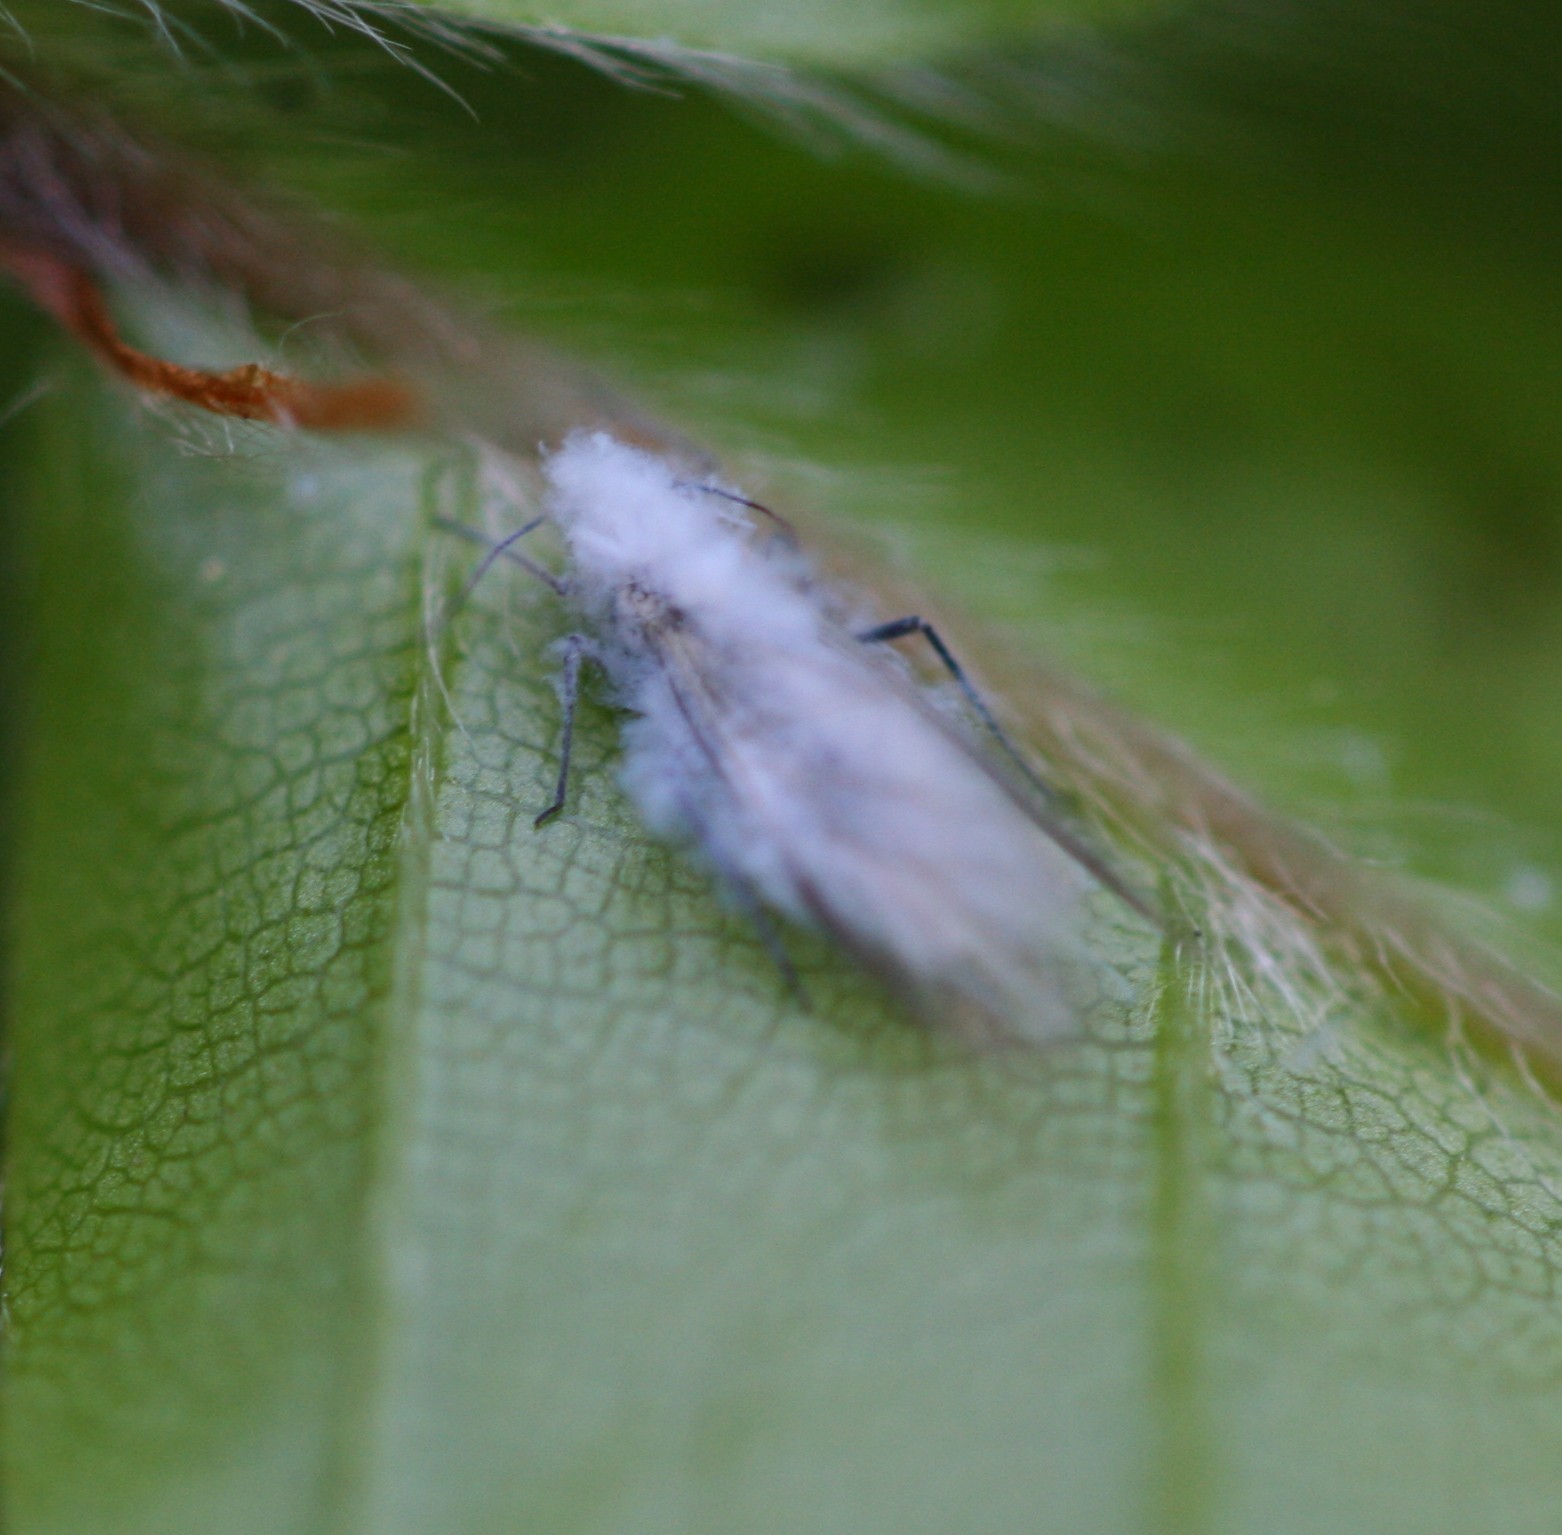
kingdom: Animalia
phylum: Arthropoda
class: Insecta
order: Hemiptera
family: Aphididae
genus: Phyllaphis
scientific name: Phyllaphis fagi
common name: Beech aphid
